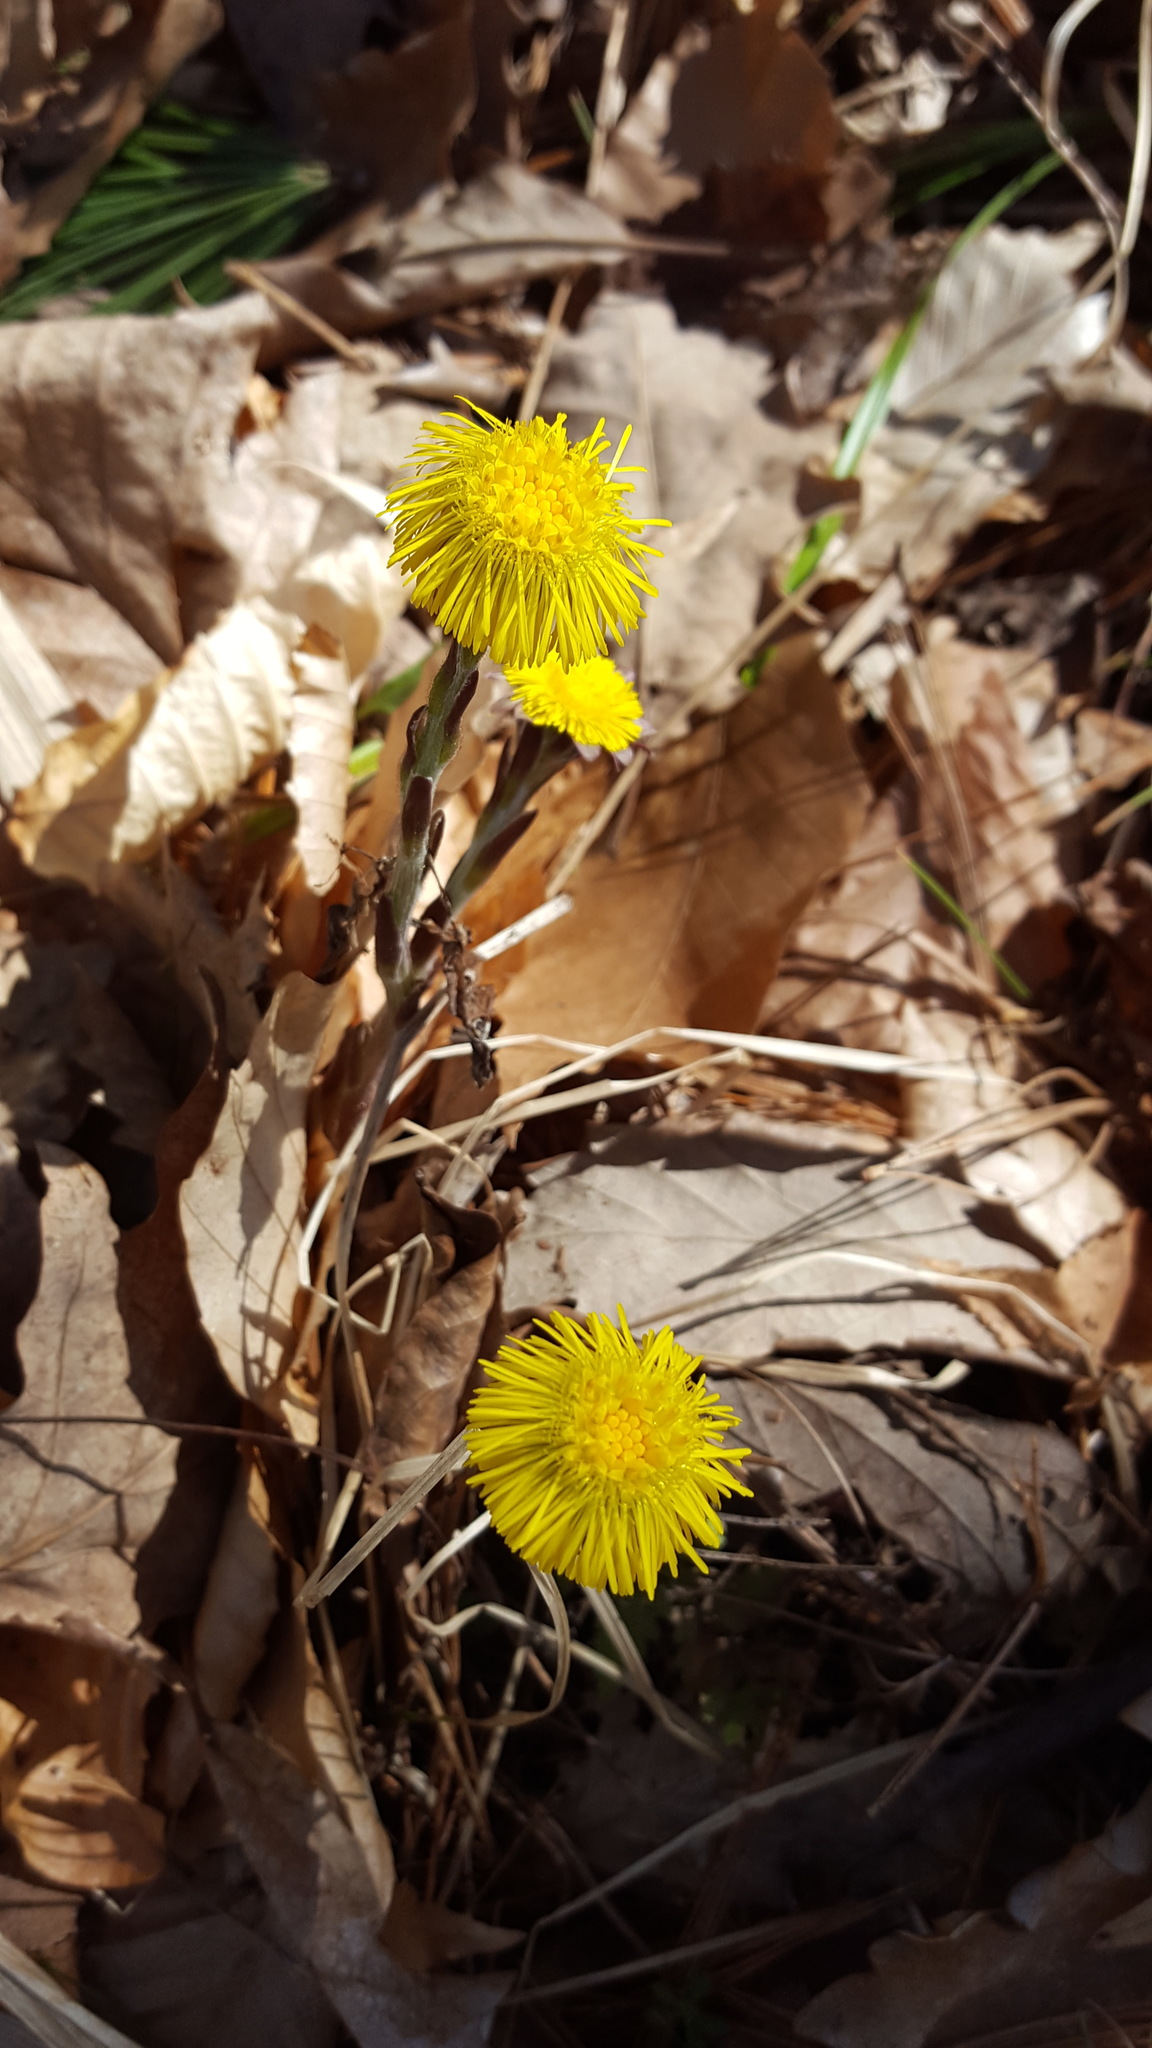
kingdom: Plantae
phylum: Tracheophyta
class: Magnoliopsida
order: Asterales
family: Asteraceae
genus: Tussilago
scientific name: Tussilago farfara
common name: Coltsfoot
